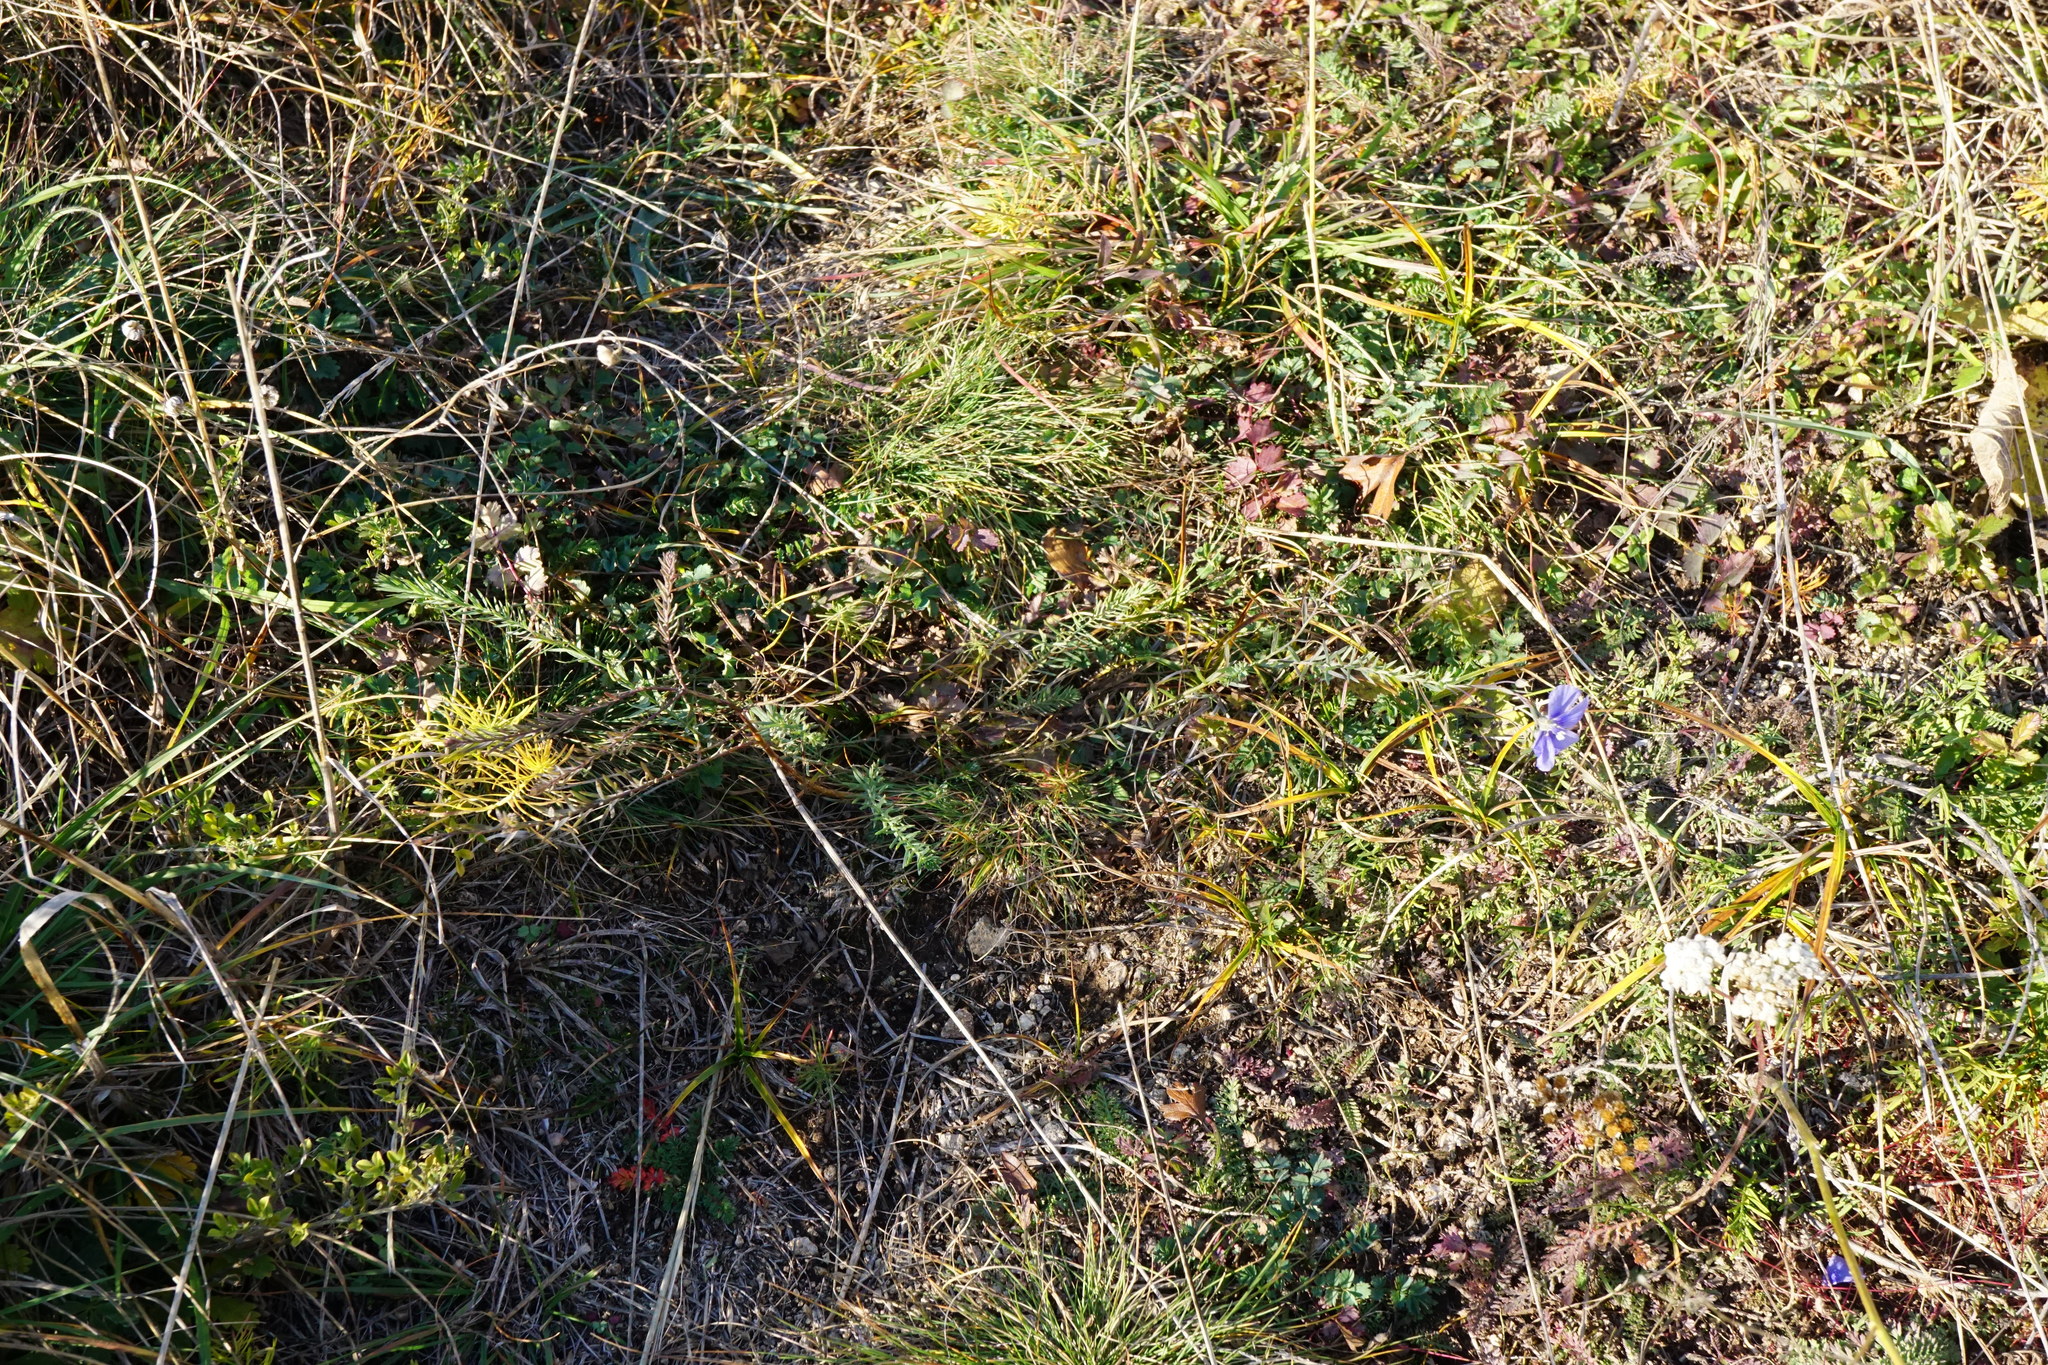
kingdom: Plantae
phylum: Tracheophyta
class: Magnoliopsida
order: Malpighiales
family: Linaceae
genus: Linum
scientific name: Linum austriacum
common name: Austrian flax
